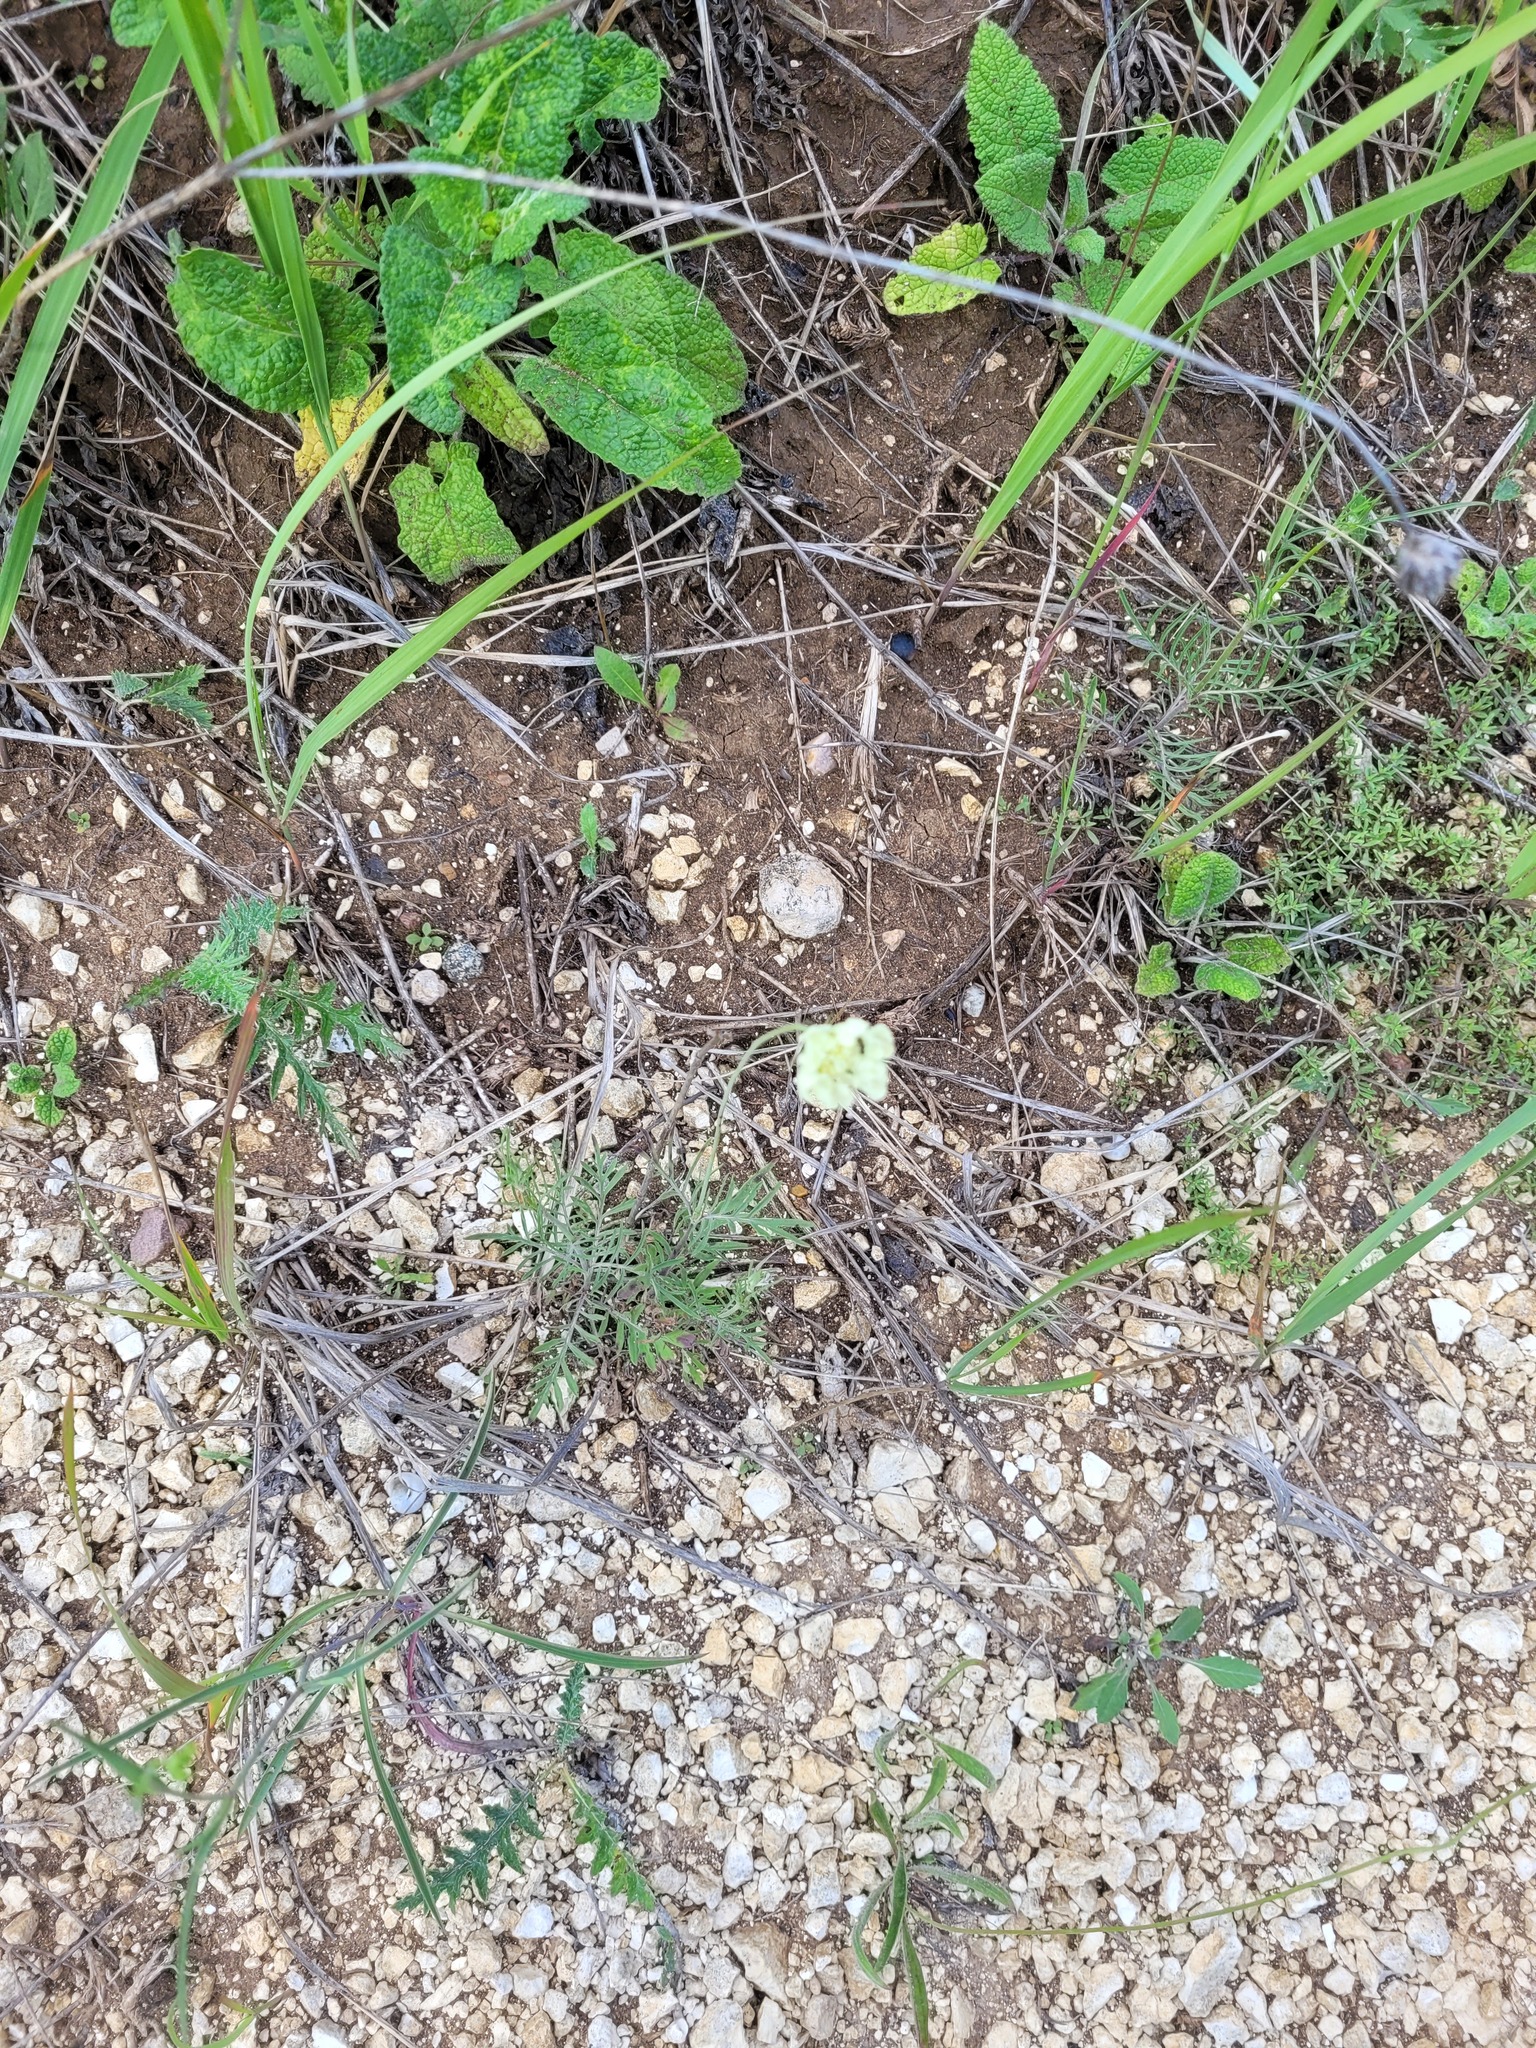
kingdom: Plantae
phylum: Tracheophyta
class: Magnoliopsida
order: Dipsacales
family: Caprifoliaceae
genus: Scabiosa
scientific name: Scabiosa ochroleuca
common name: Cream pincushions
